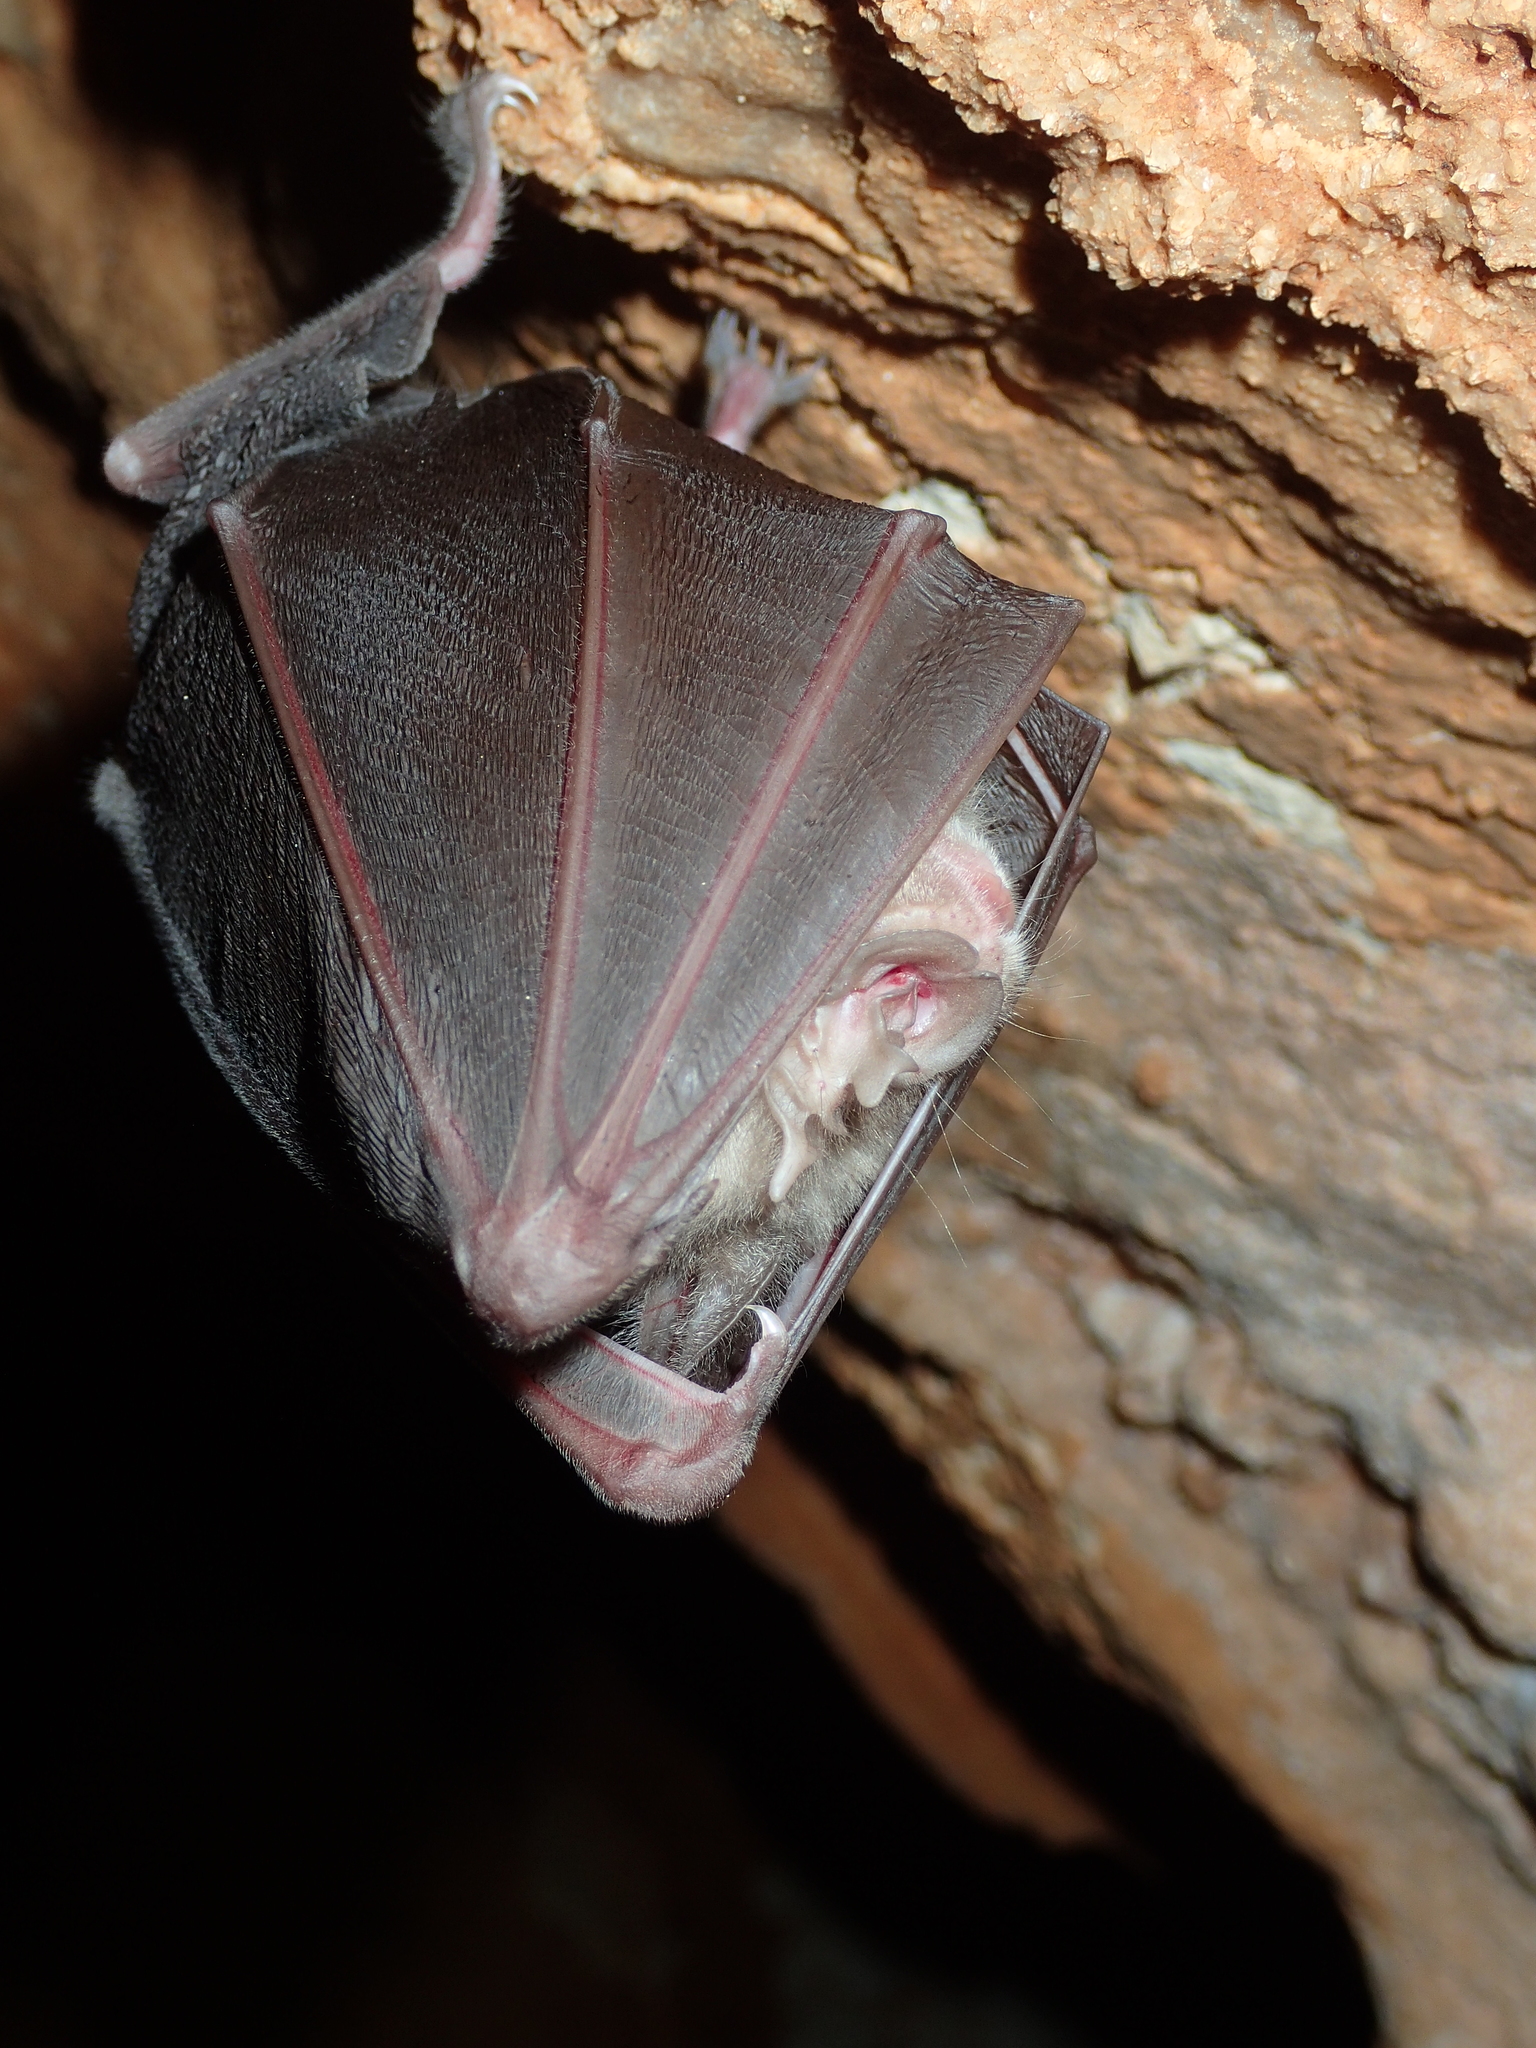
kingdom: Animalia
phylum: Chordata
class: Mammalia
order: Chiroptera
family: Rhinolophidae
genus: Rhinolophus
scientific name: Rhinolophus ferrumequinum
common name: Greater horseshoe bat
